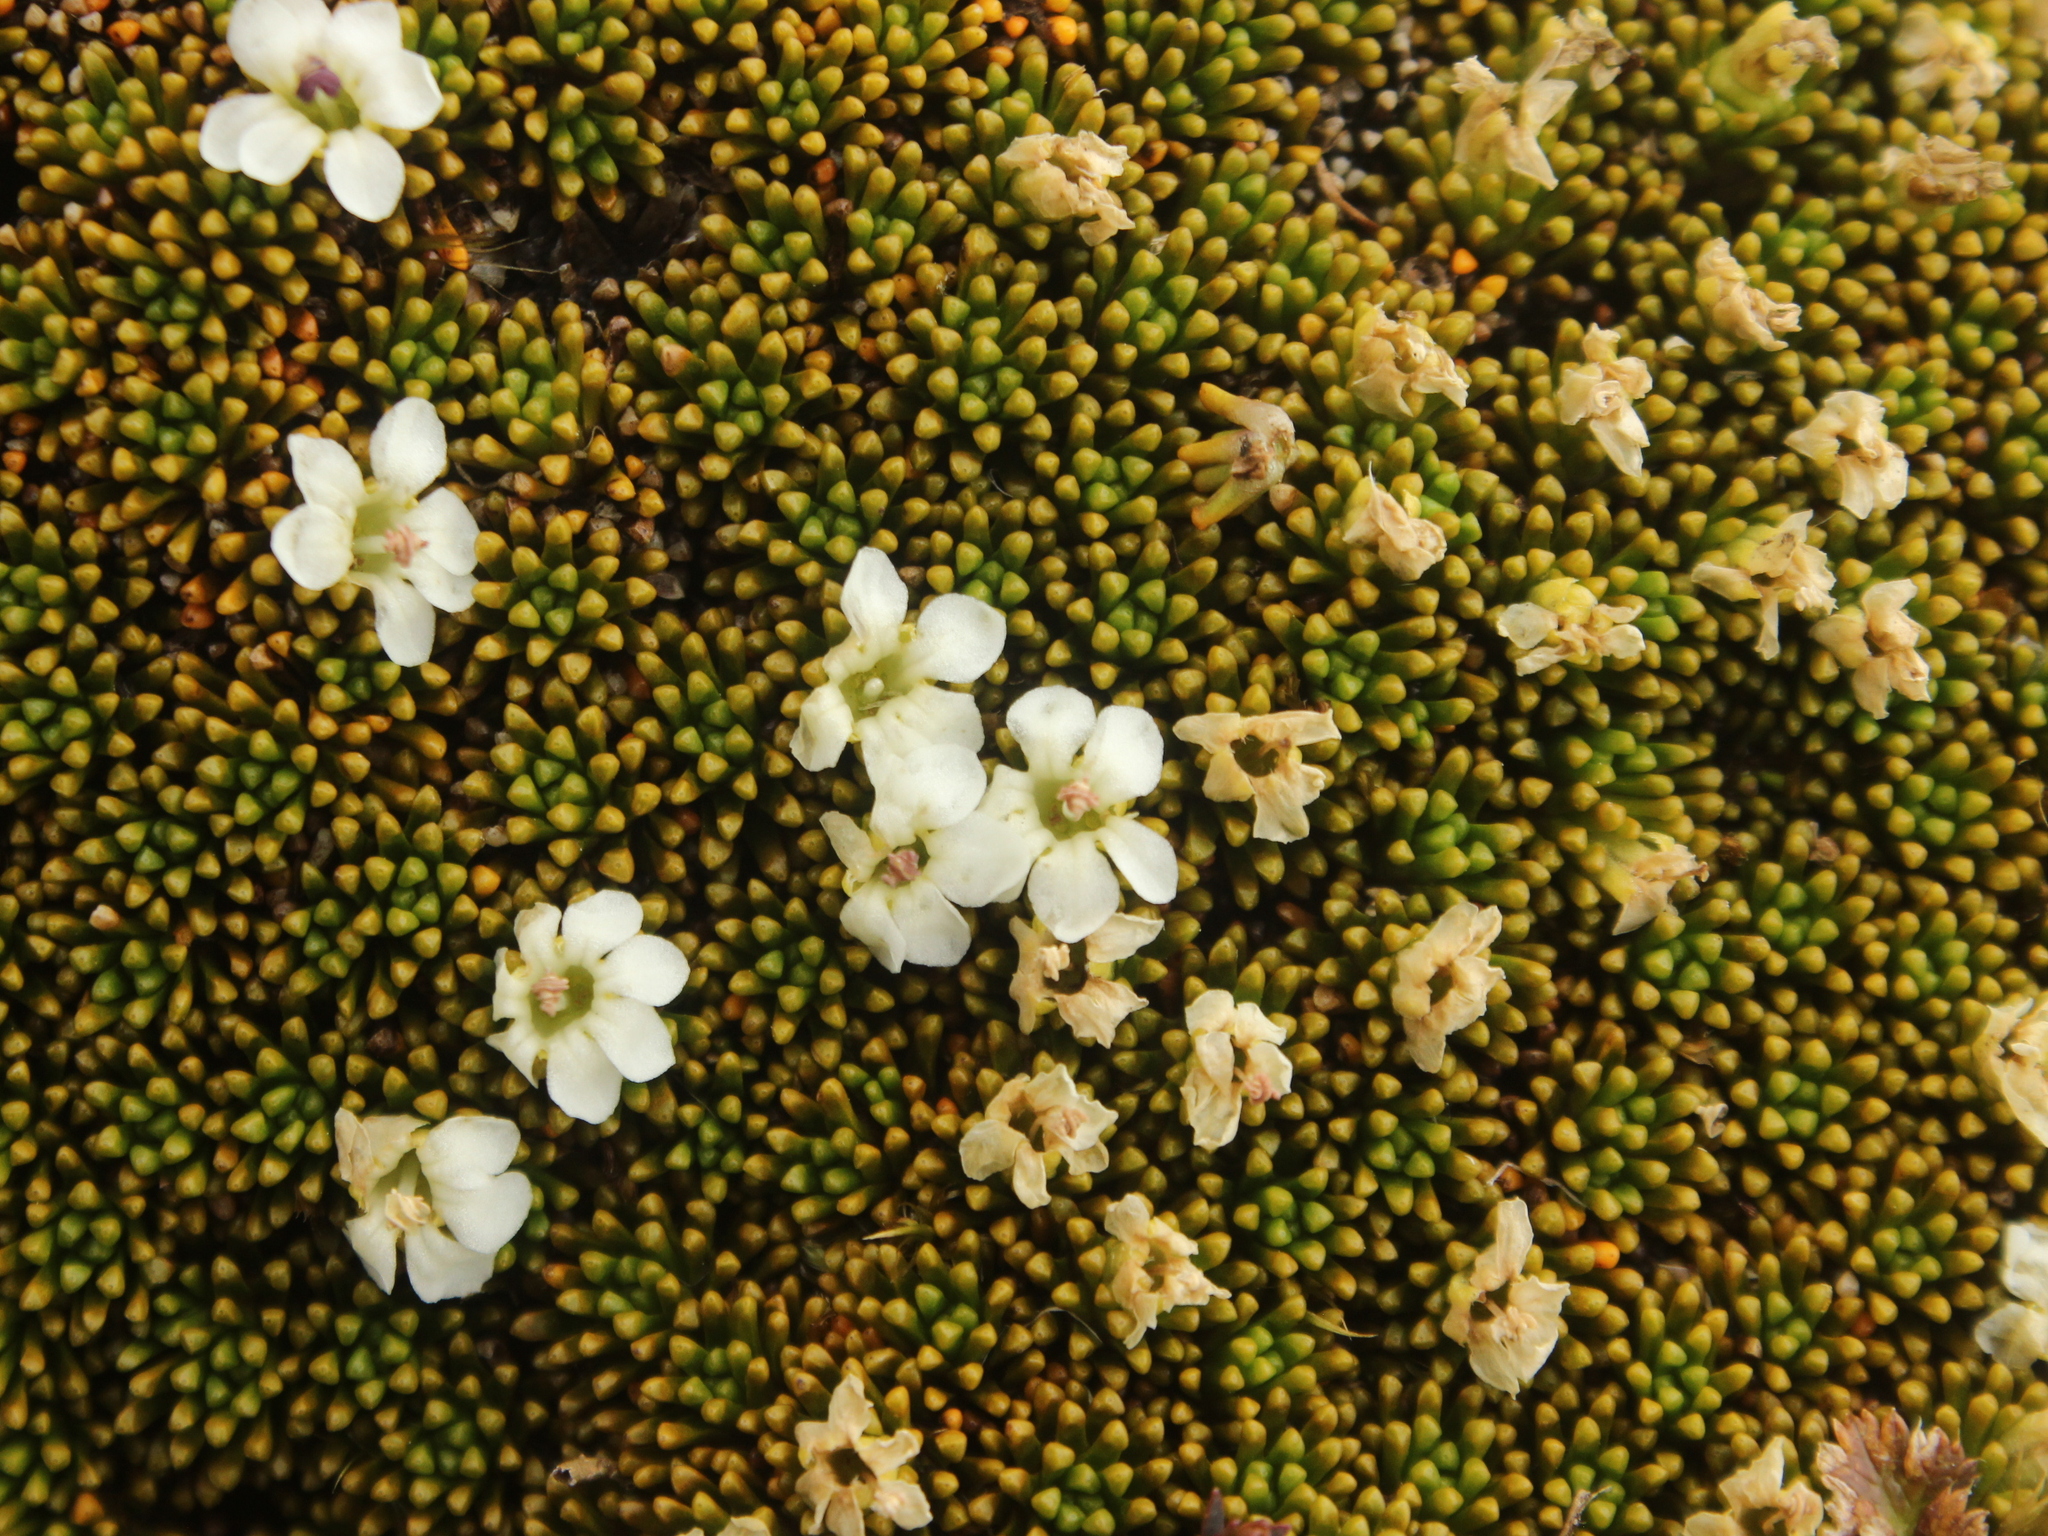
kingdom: Plantae
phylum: Tracheophyta
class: Magnoliopsida
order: Asterales
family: Stylidiaceae
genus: Phyllachne
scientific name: Phyllachne colensoi
